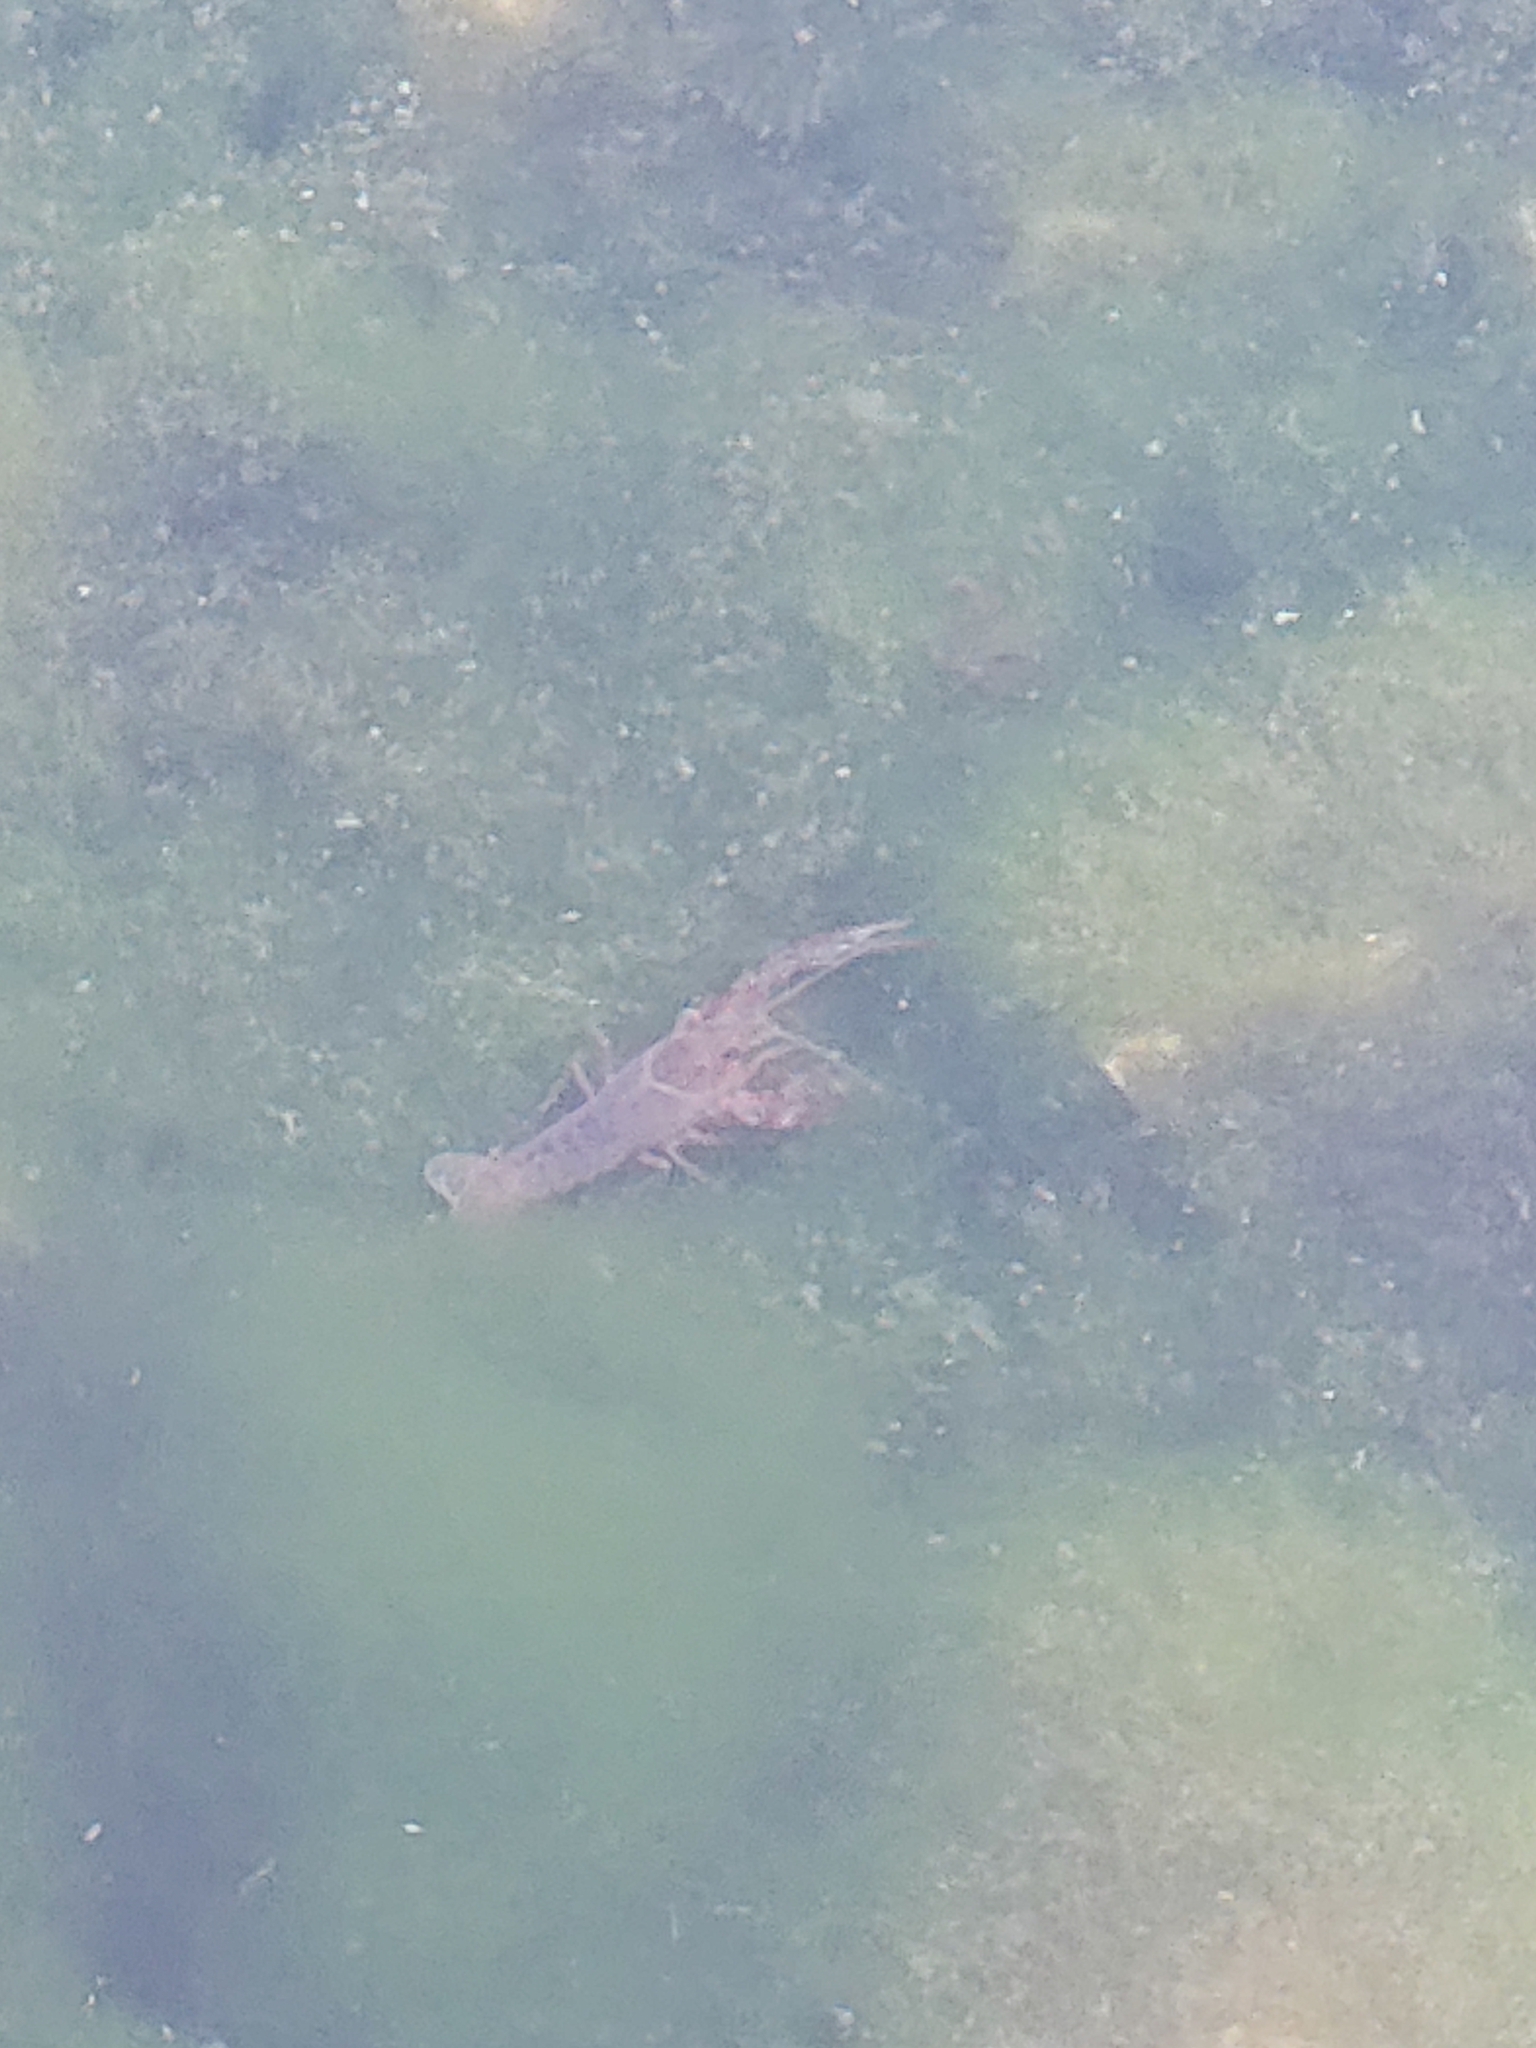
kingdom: Animalia
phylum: Arthropoda
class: Malacostraca
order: Decapoda
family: Cambaridae
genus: Procambarus
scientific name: Procambarus clarkii
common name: Red swamp crayfish
